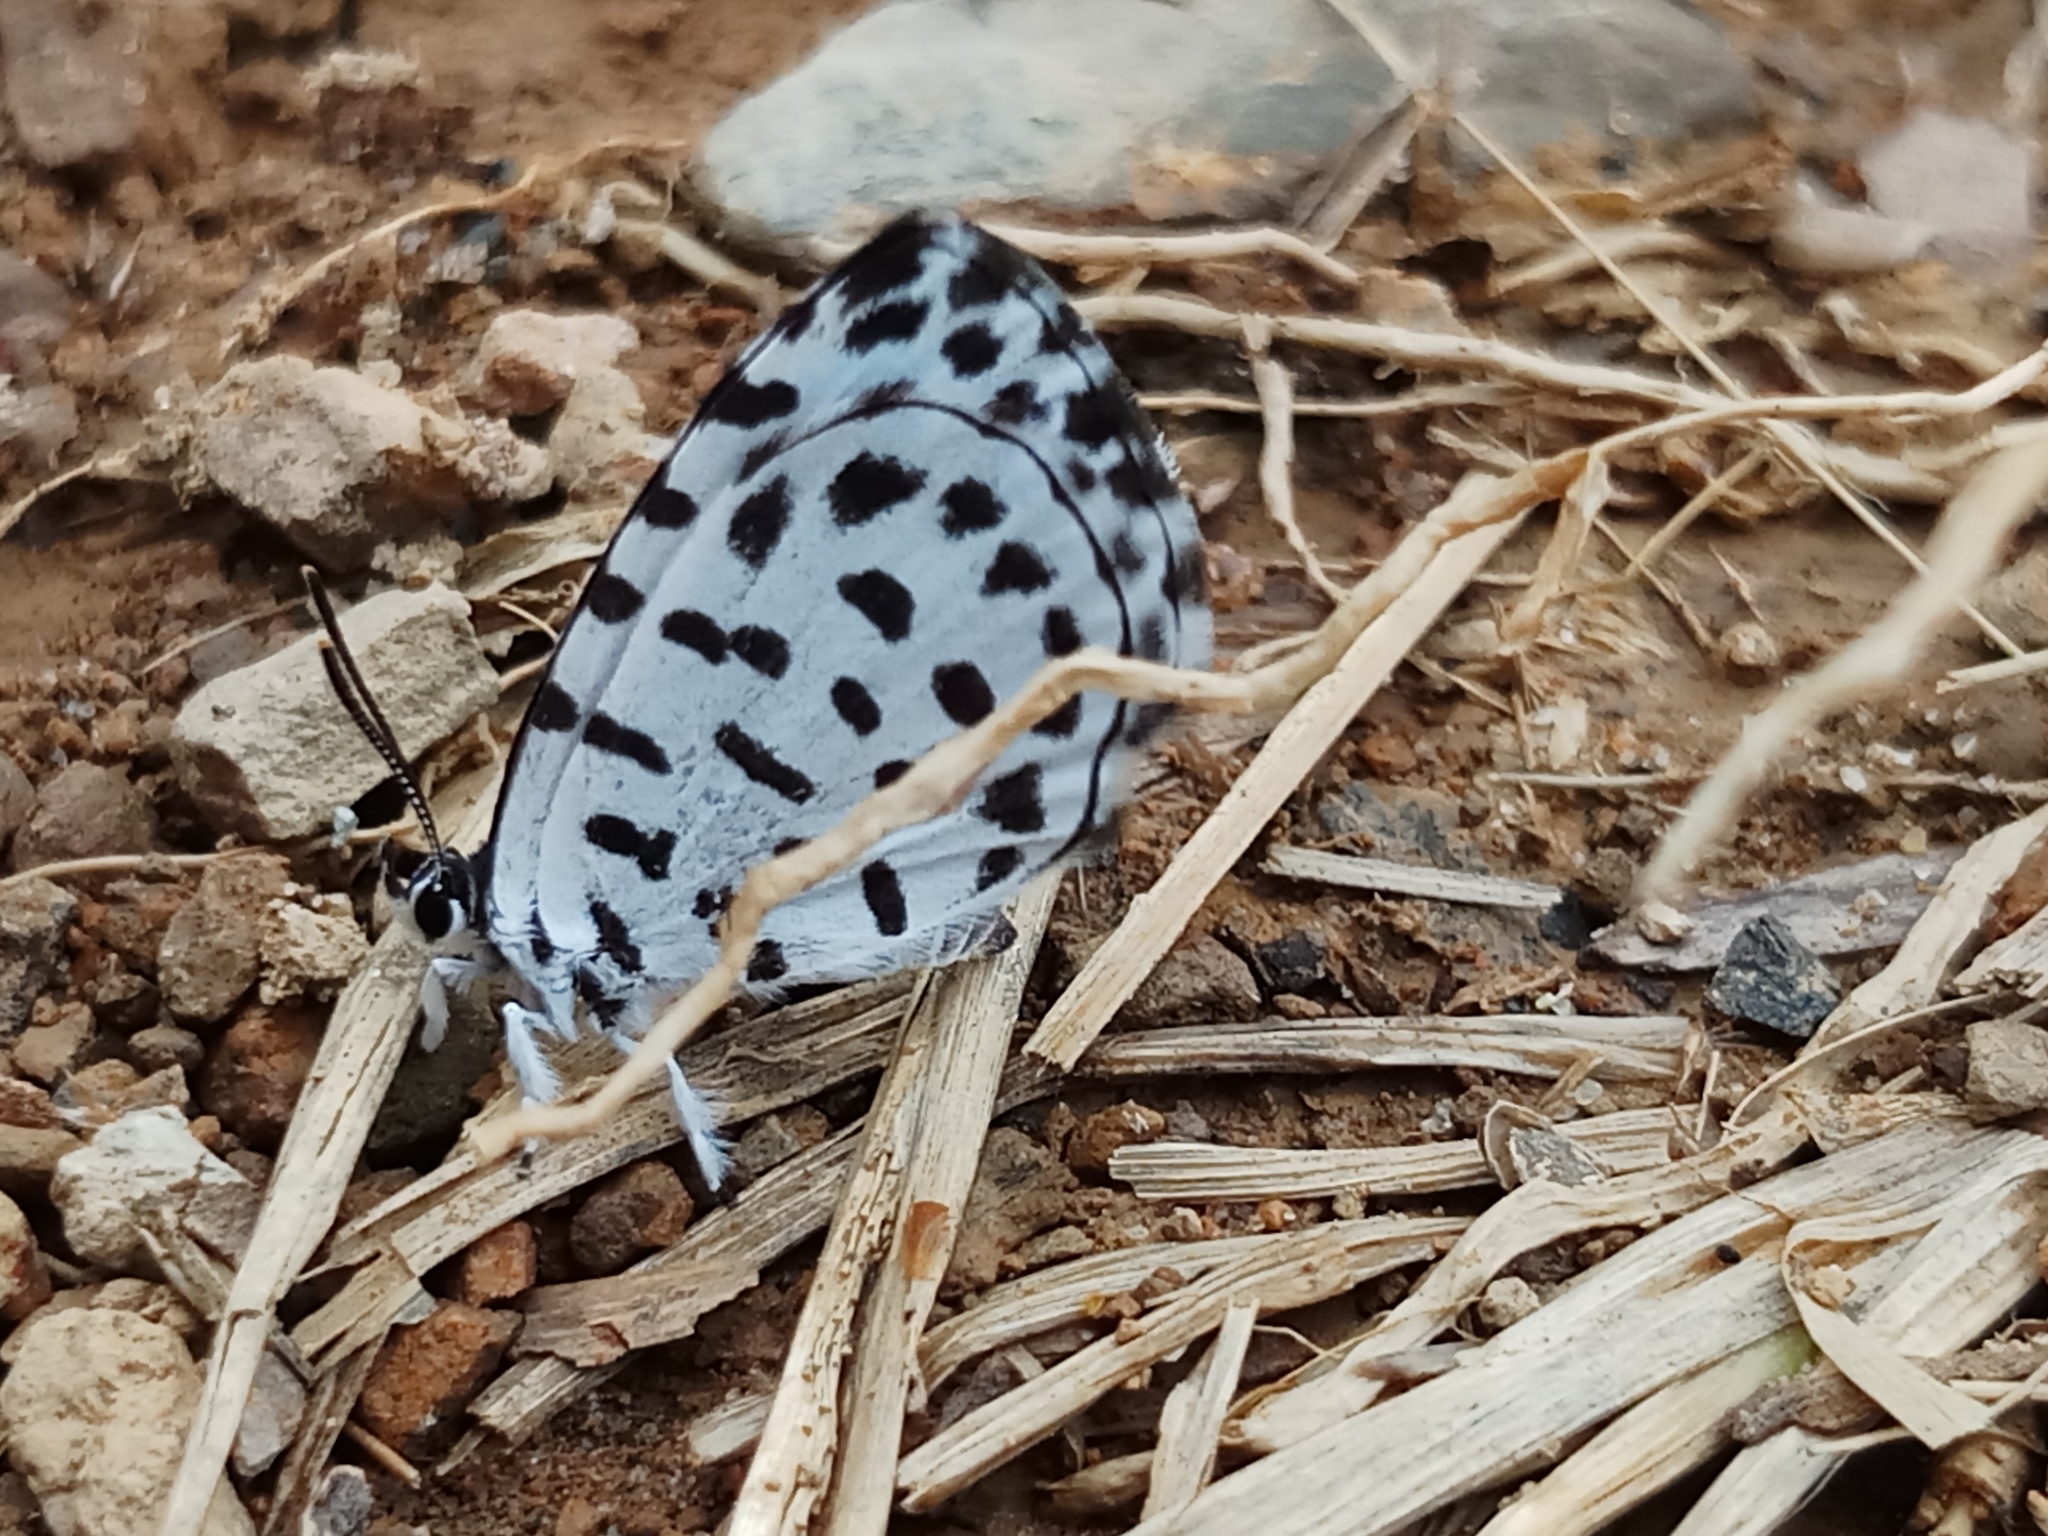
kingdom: Animalia
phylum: Arthropoda
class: Insecta
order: Lepidoptera
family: Lycaenidae
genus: Taraka
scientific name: Taraka hamada
